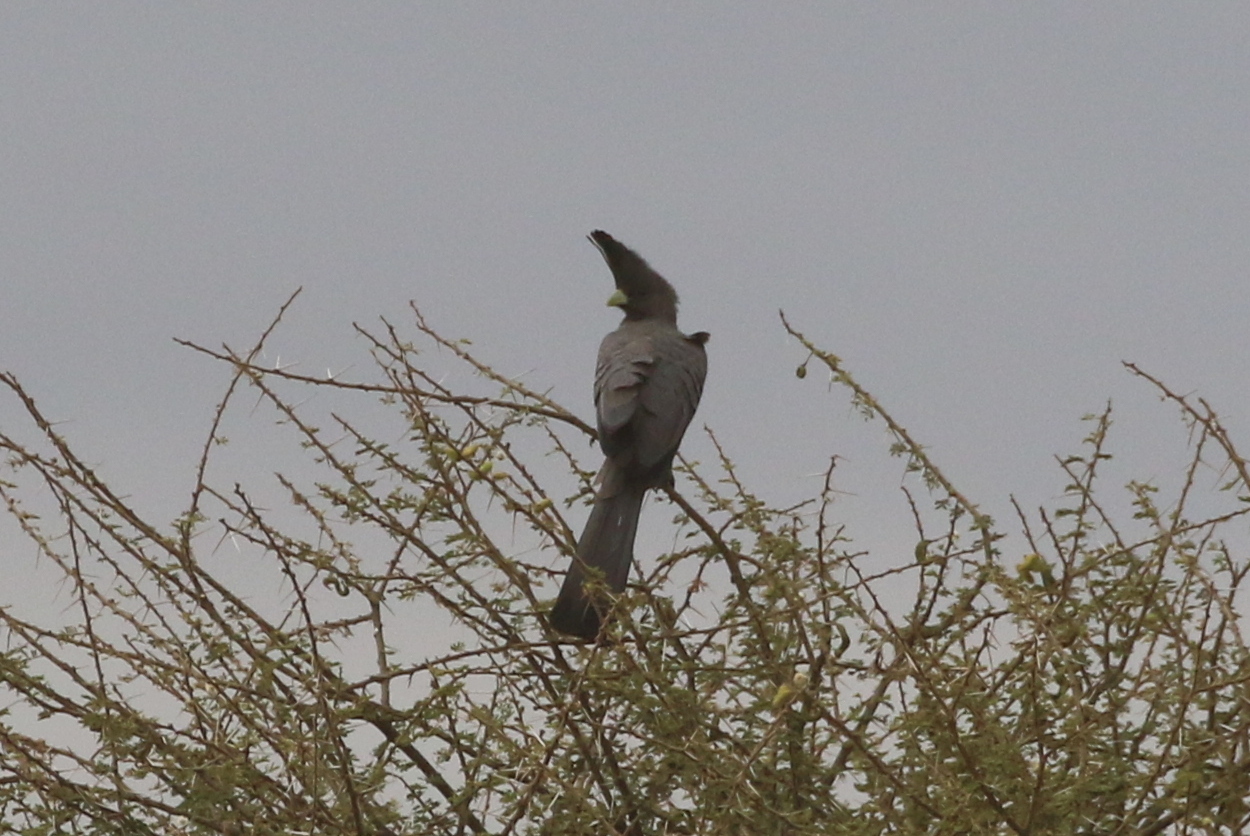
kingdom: Animalia
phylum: Chordata
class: Aves
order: Musophagiformes
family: Musophagidae
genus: Corythaixoides
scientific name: Corythaixoides leucogaster
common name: White-bellied go-away-bird
